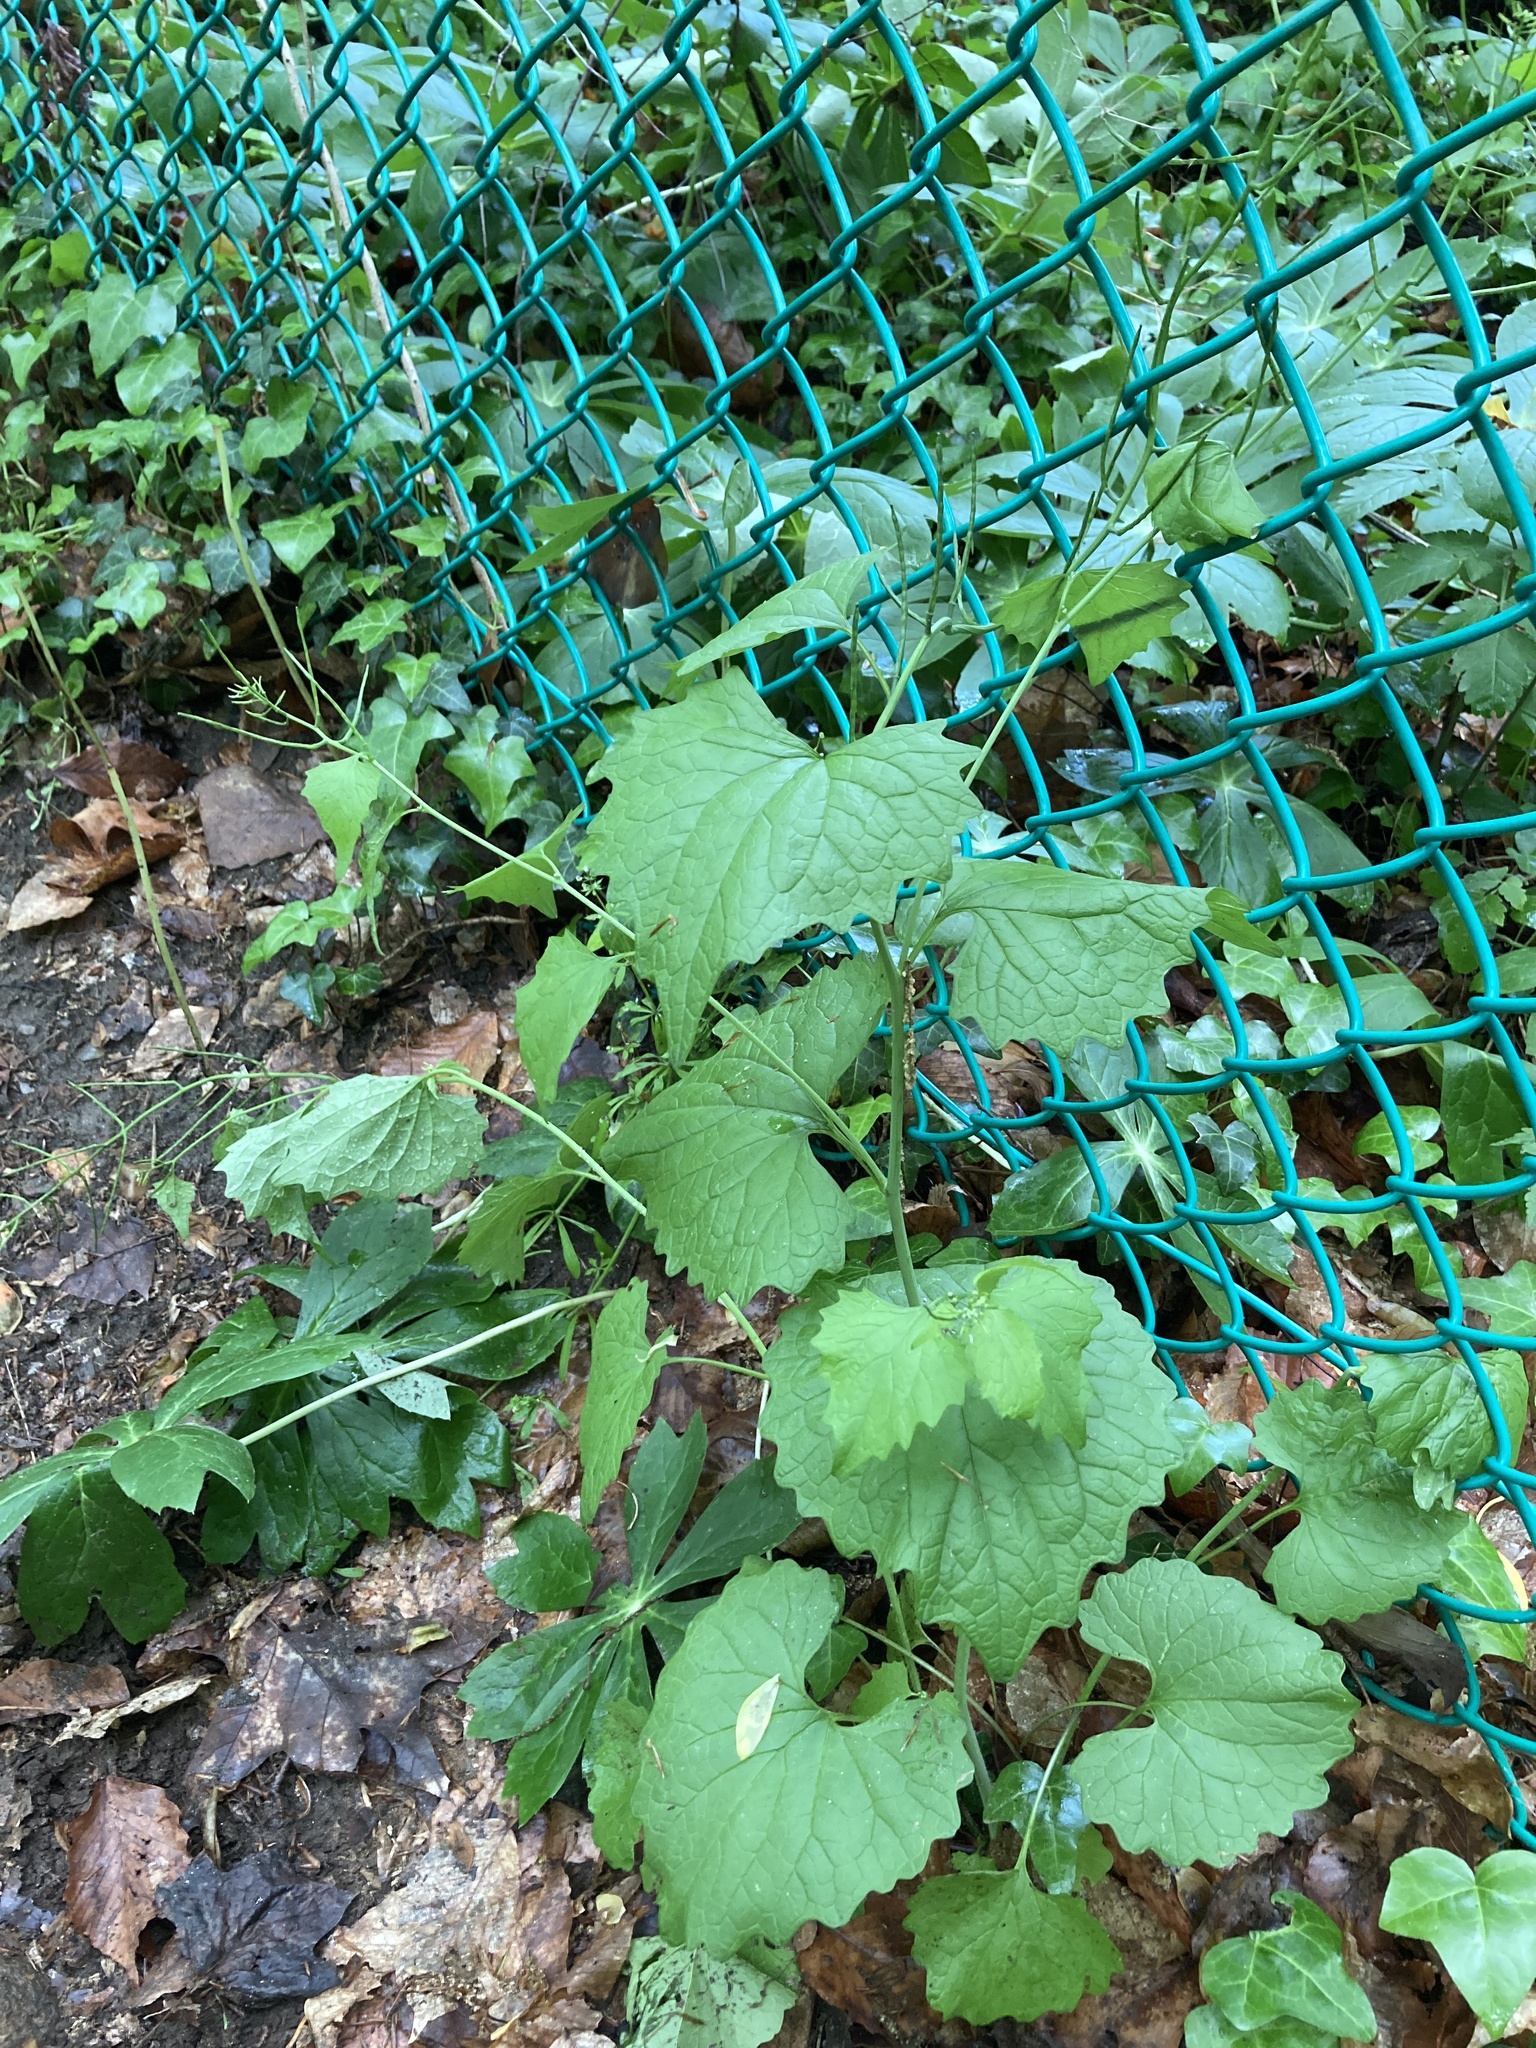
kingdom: Plantae
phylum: Tracheophyta
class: Magnoliopsida
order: Brassicales
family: Brassicaceae
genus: Alliaria
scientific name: Alliaria petiolata
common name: Garlic mustard
